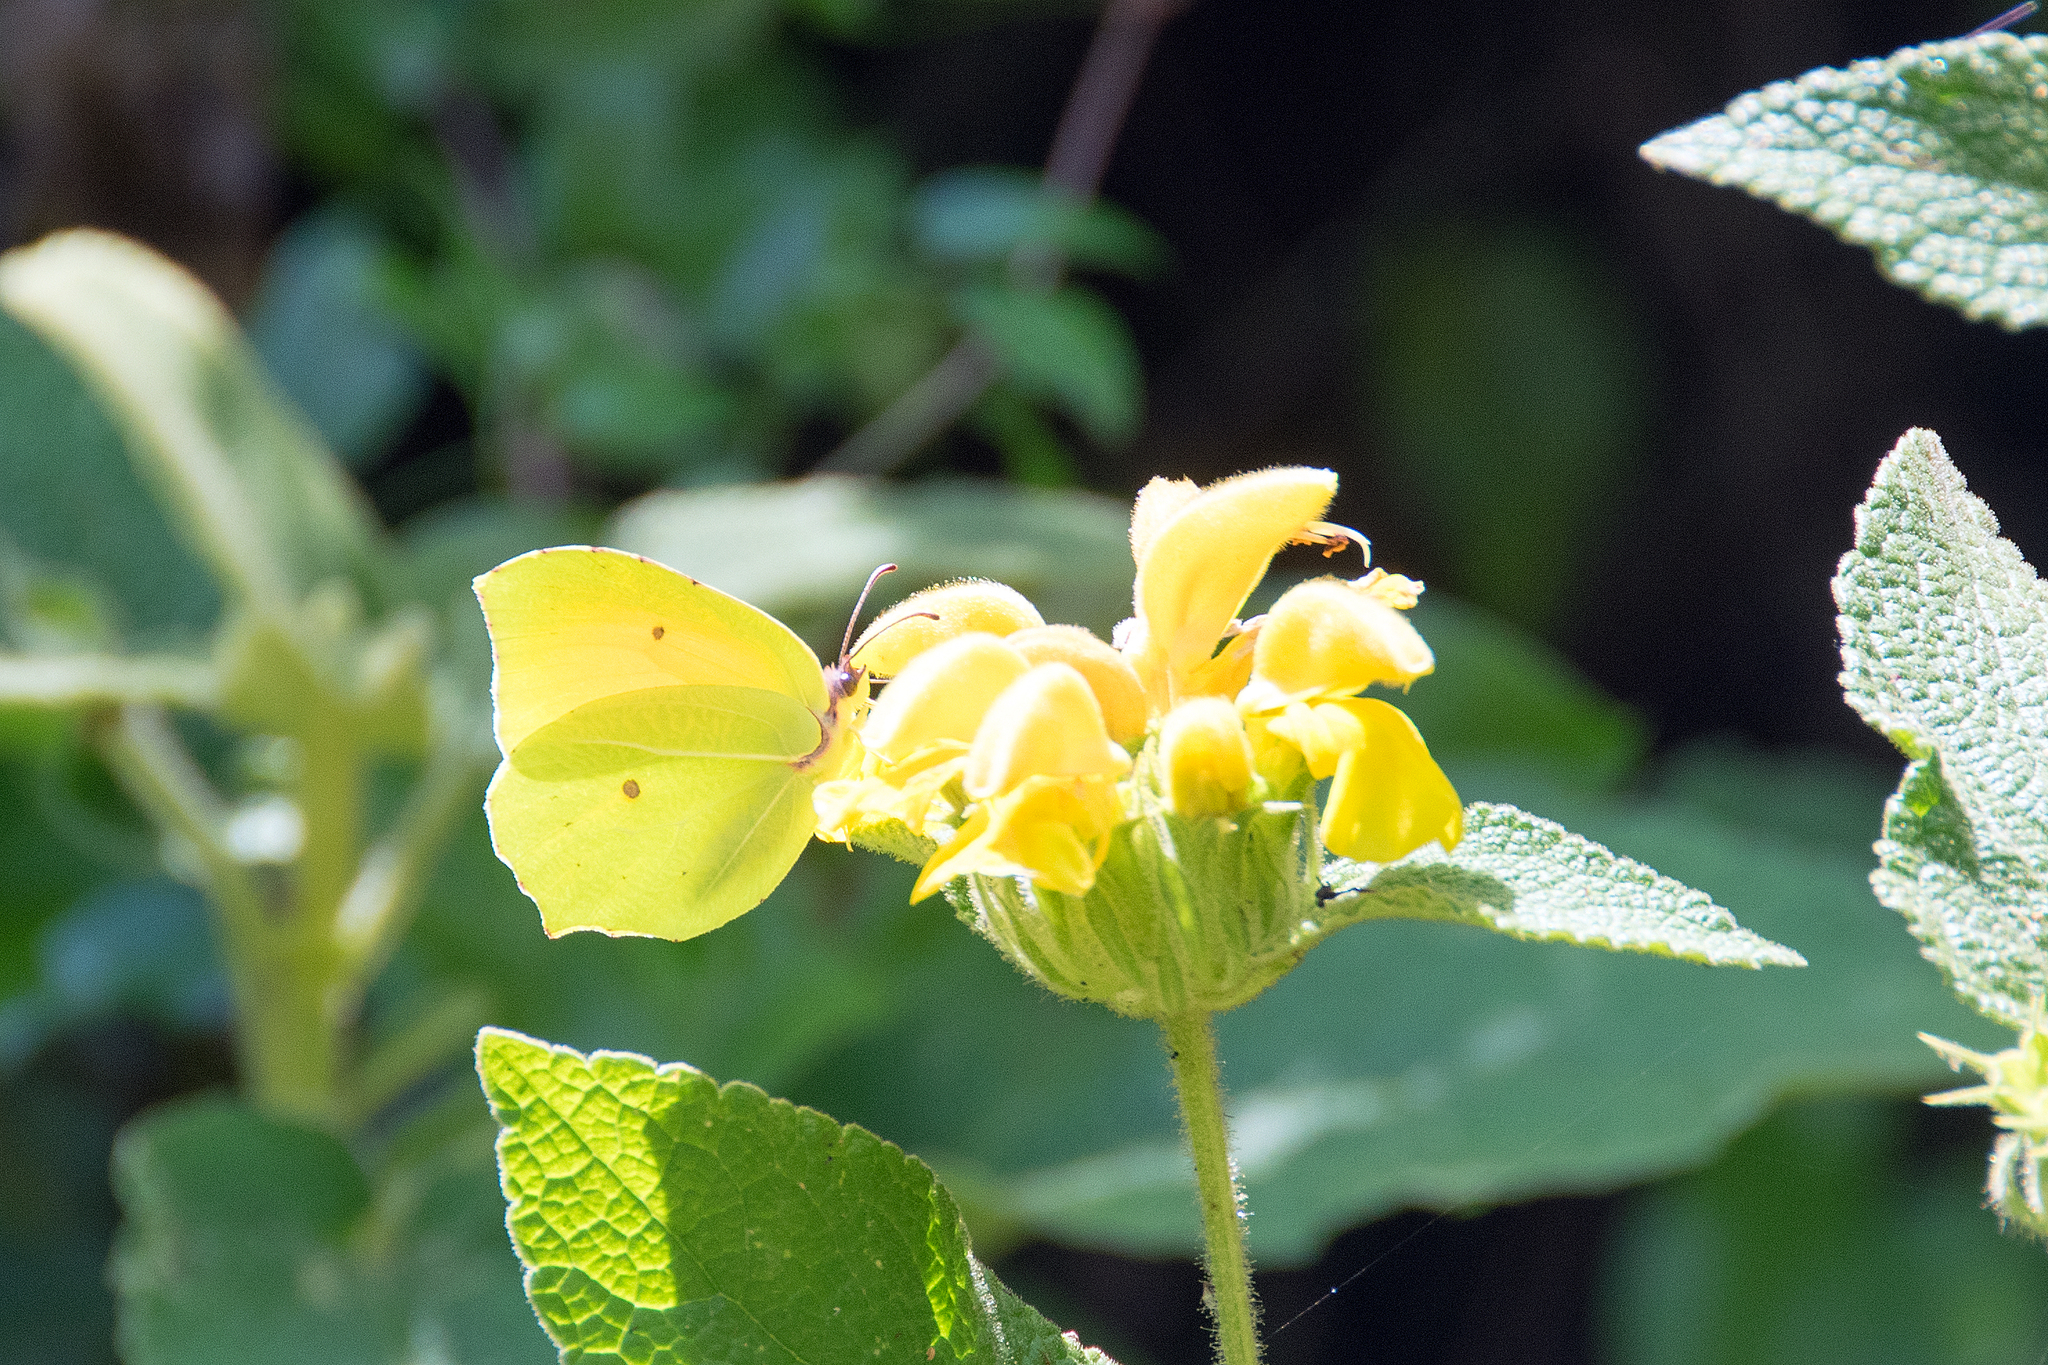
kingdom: Animalia
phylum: Arthropoda
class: Insecta
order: Lepidoptera
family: Pieridae
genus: Gonepteryx
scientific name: Gonepteryx cleopatra
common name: Cleopatra
